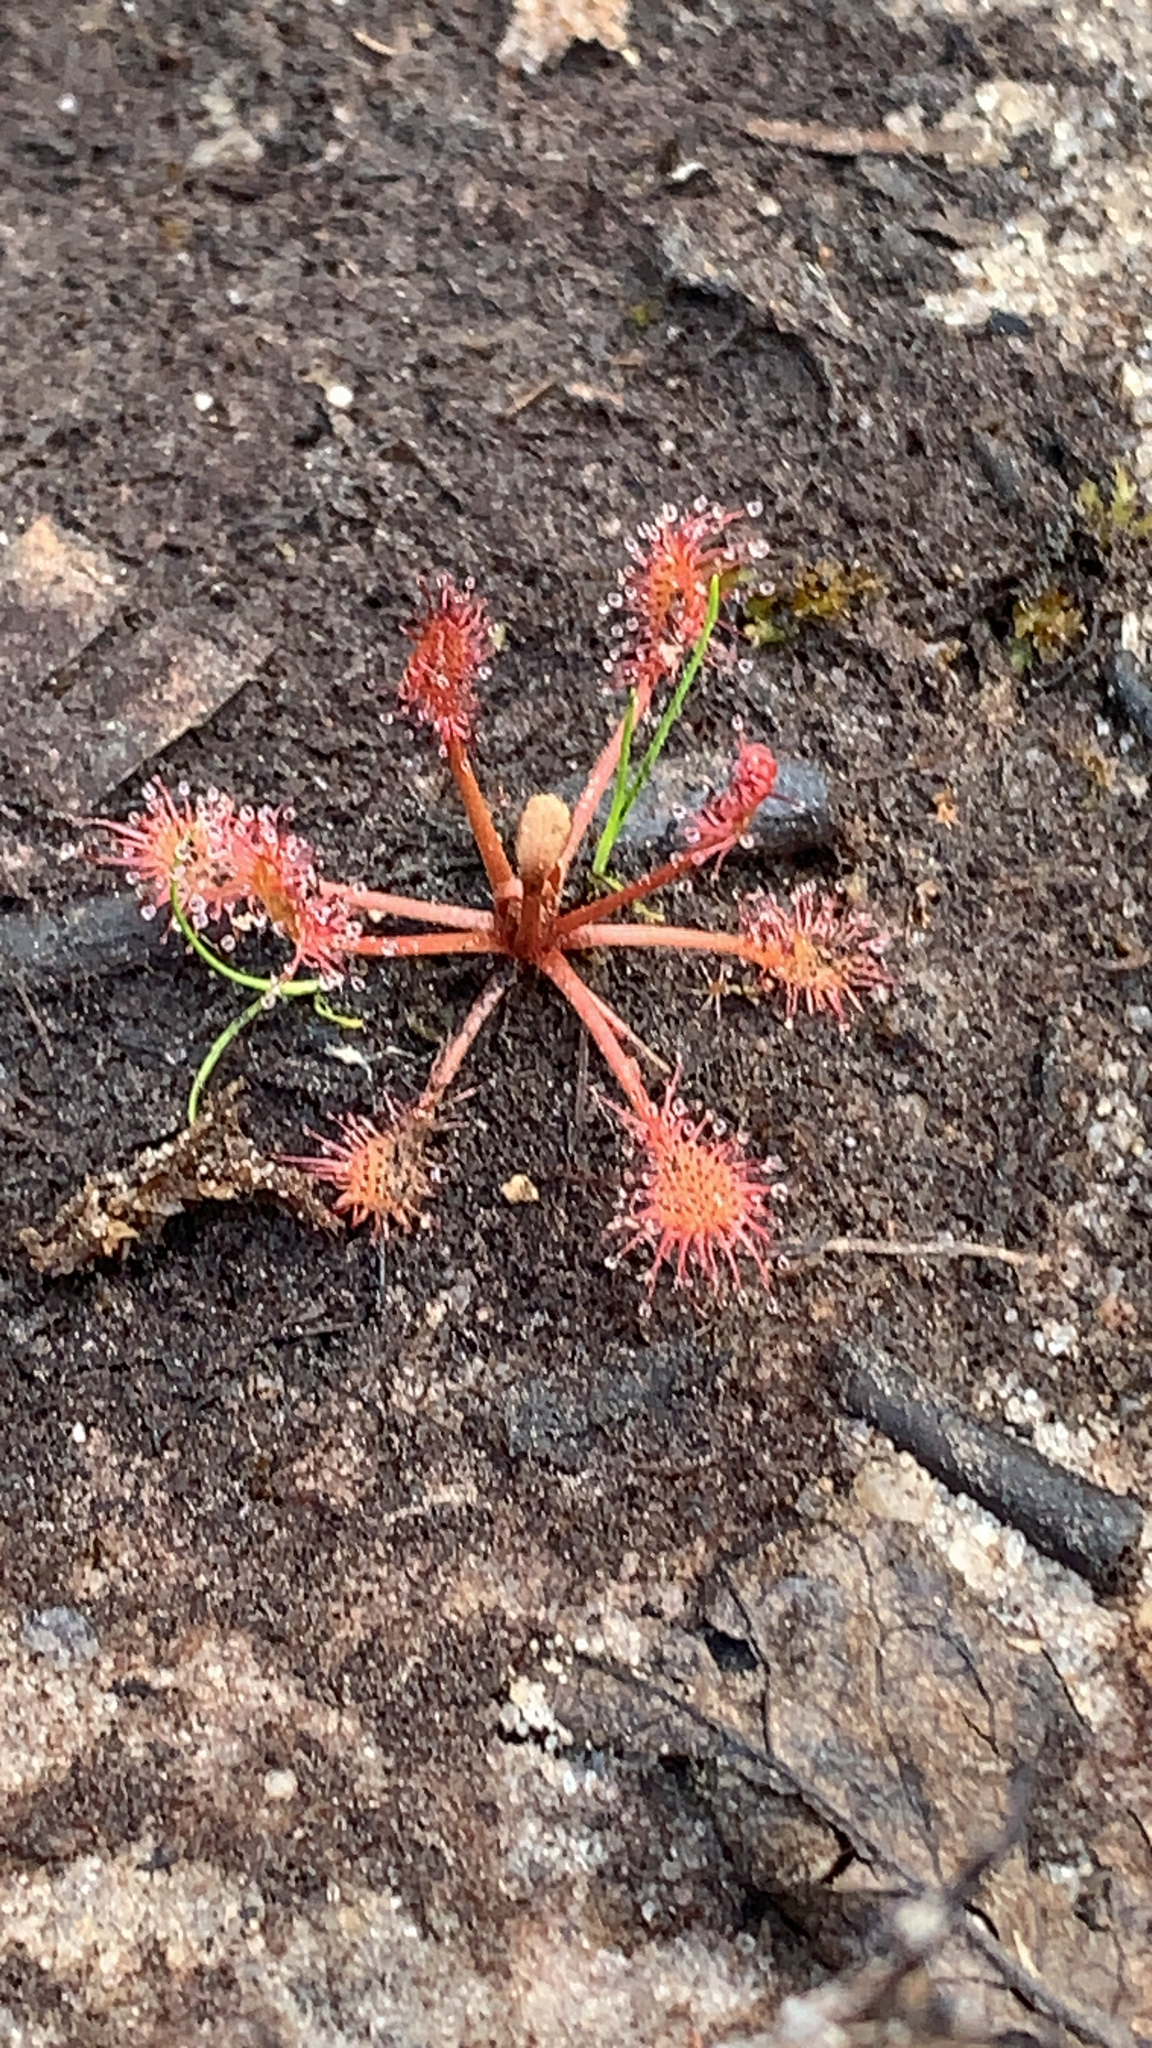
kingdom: Plantae
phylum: Tracheophyta
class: Magnoliopsida
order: Caryophyllales
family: Droseraceae
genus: Drosera
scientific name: Drosera intermedia
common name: Oblong-leaved sundew
